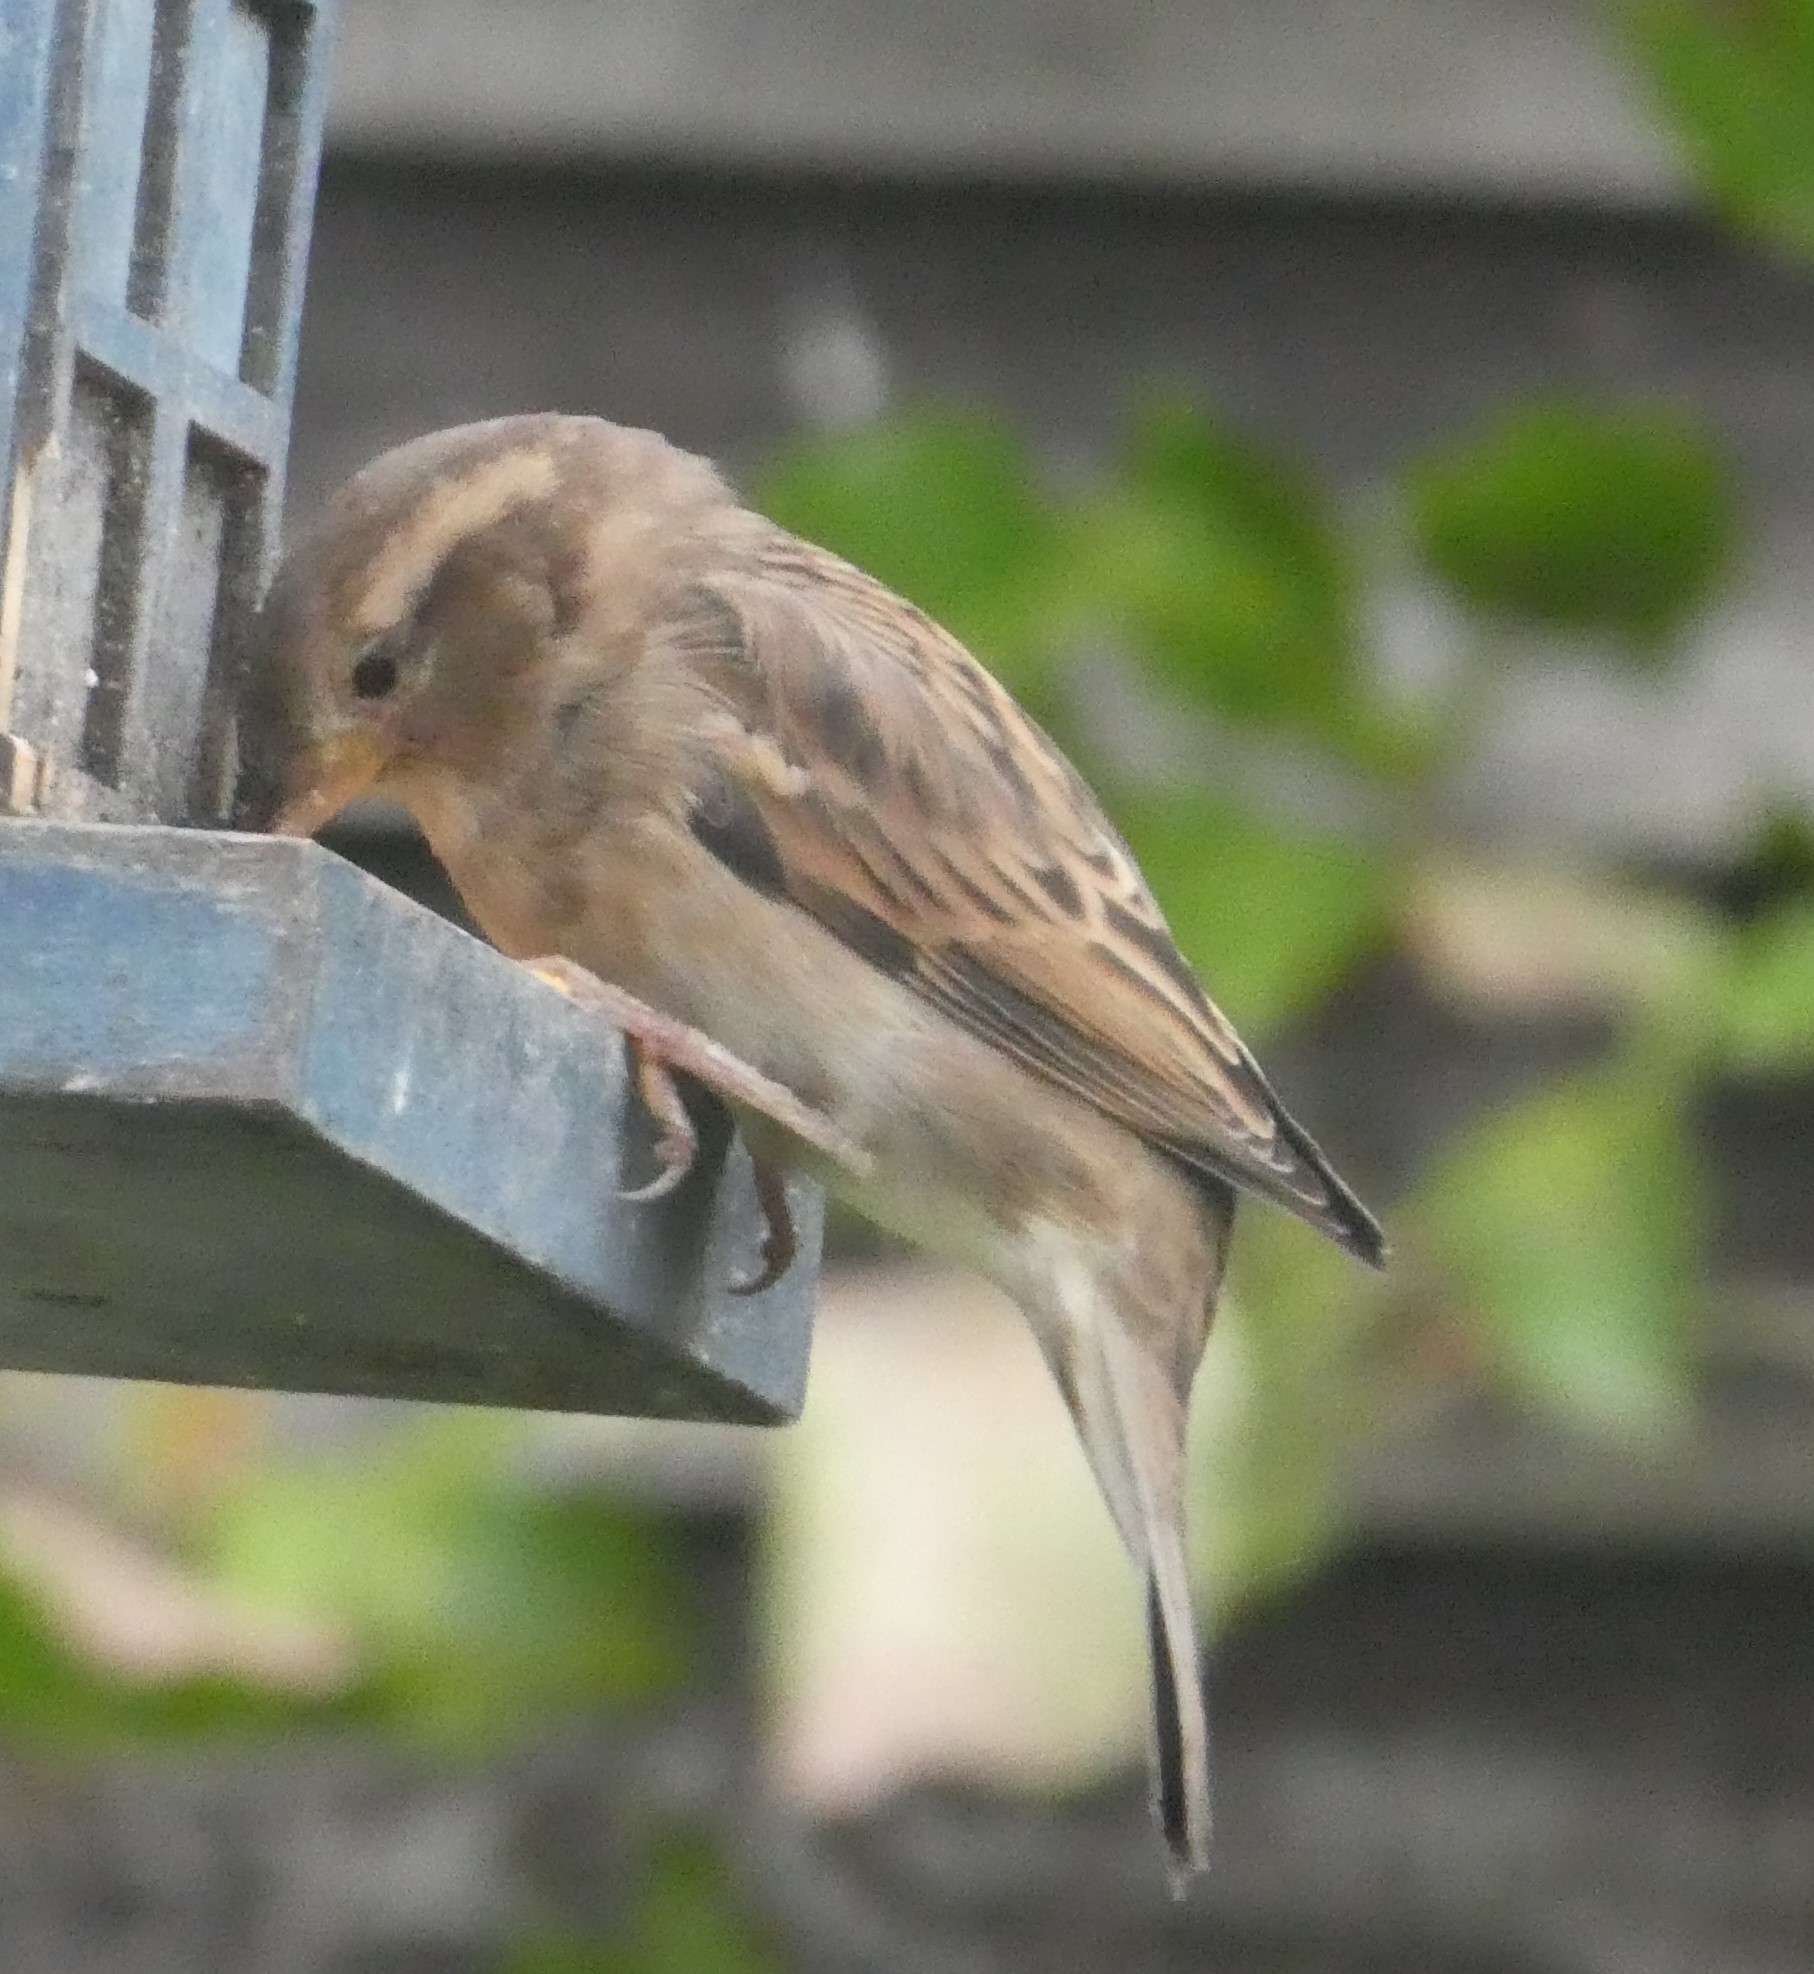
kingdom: Animalia
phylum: Chordata
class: Aves
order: Passeriformes
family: Passeridae
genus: Passer
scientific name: Passer domesticus
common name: House sparrow
